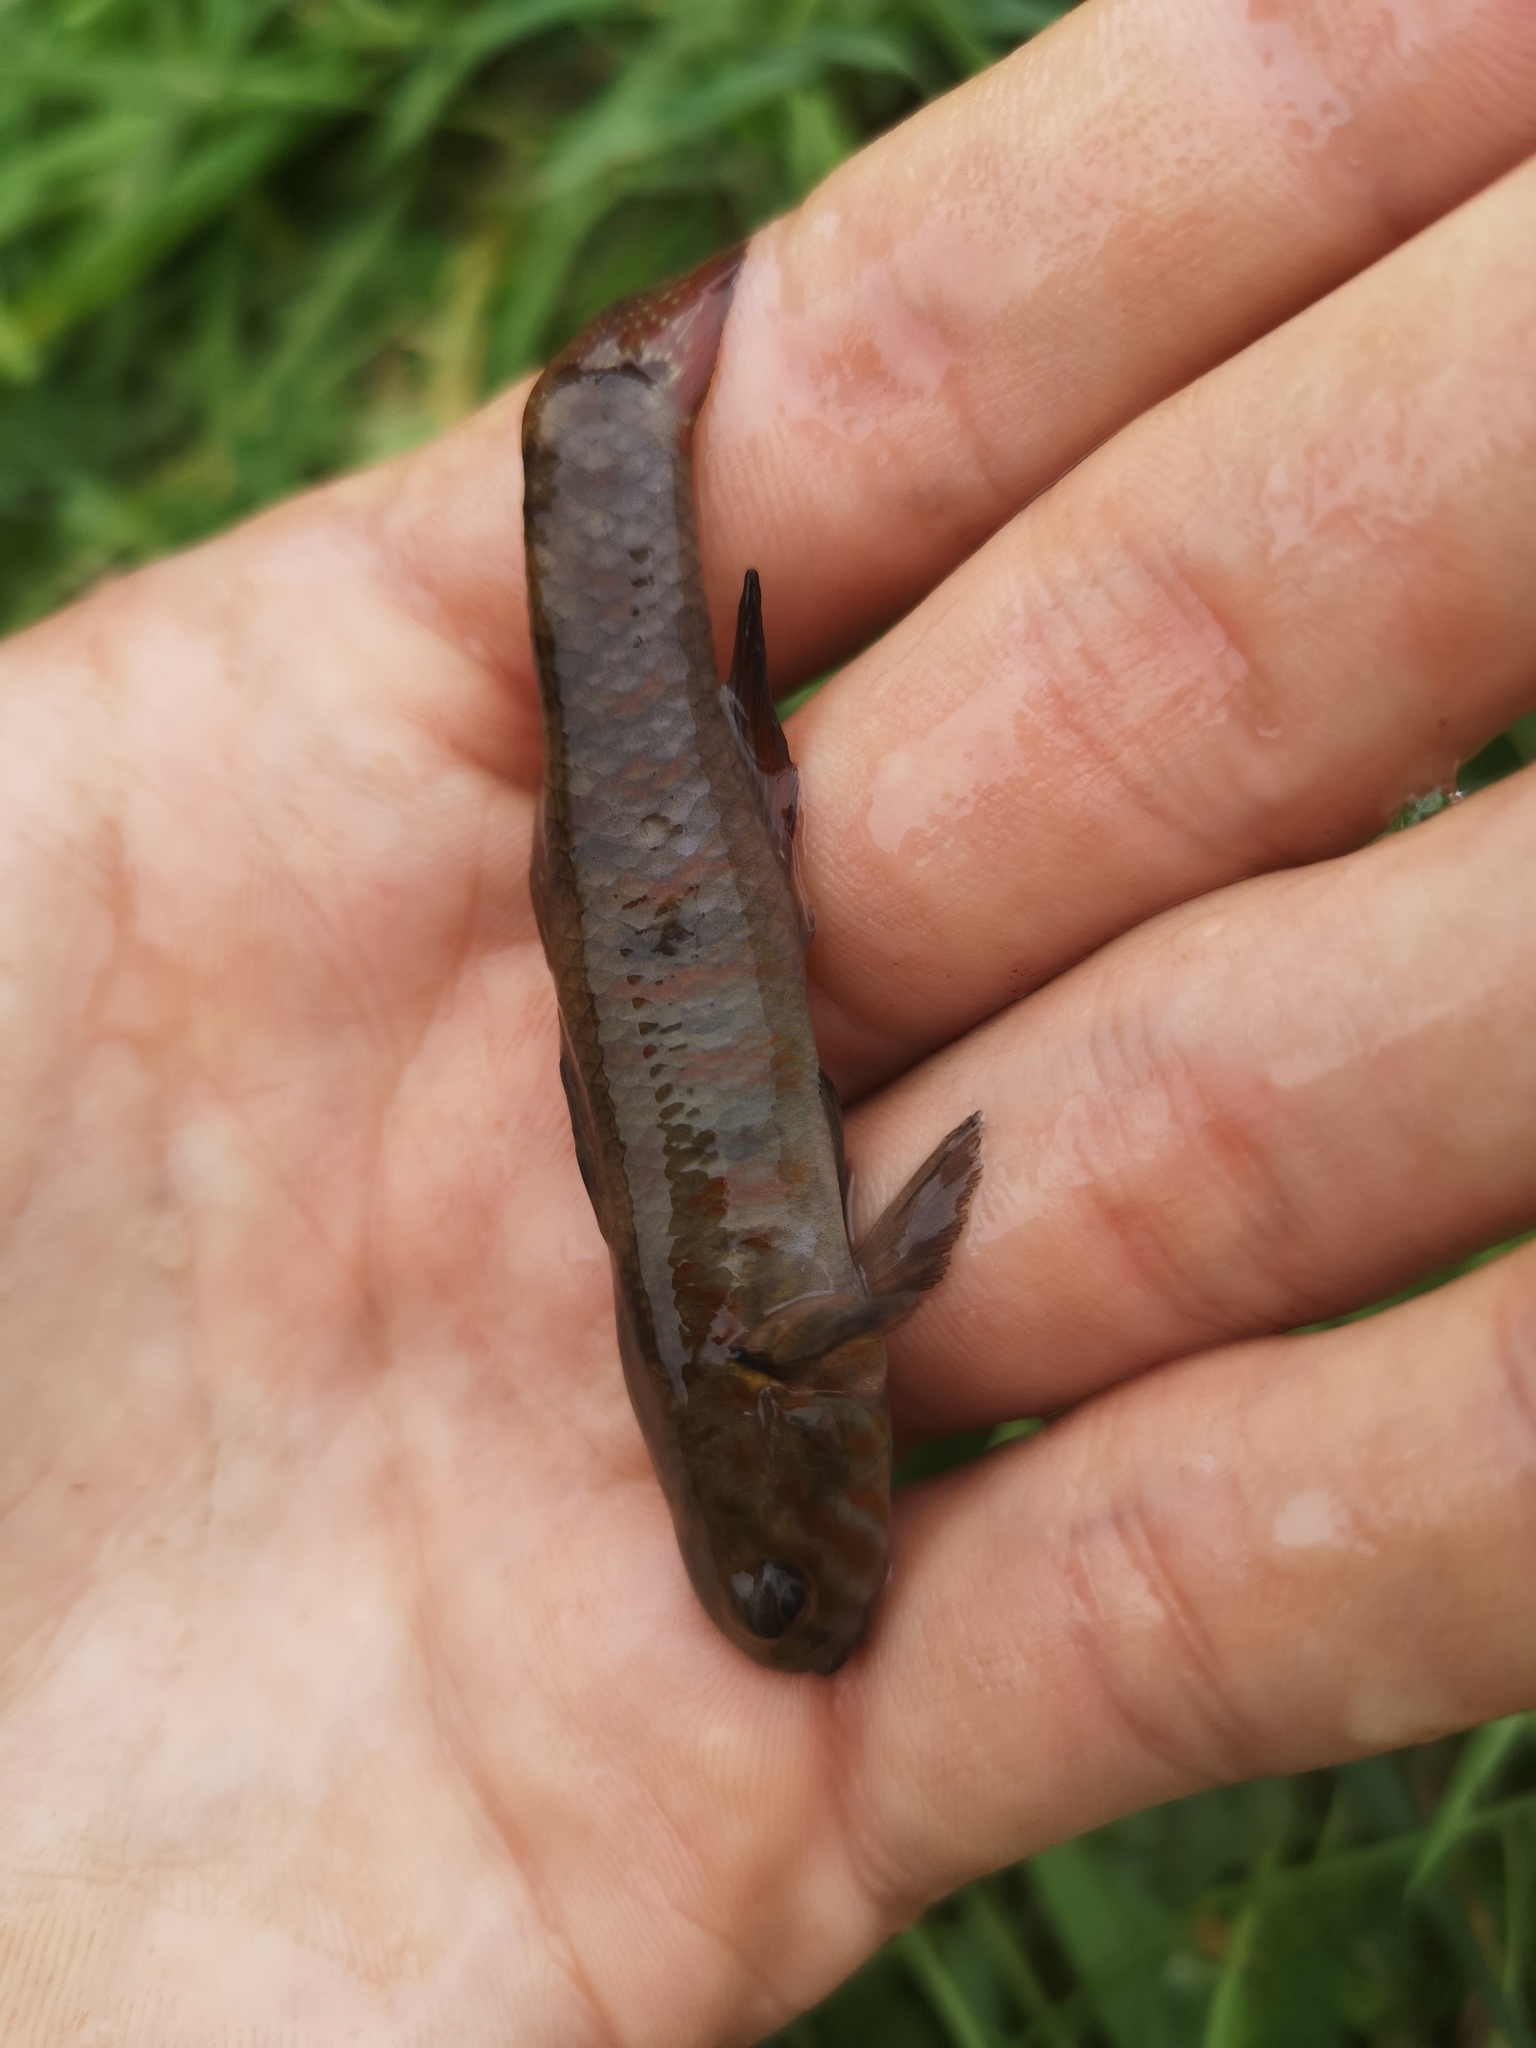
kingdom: Animalia
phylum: Chordata
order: Perciformes
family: Eleotridae
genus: Gobiomorphus
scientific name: Gobiomorphus huttoni
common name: Redfin bully
